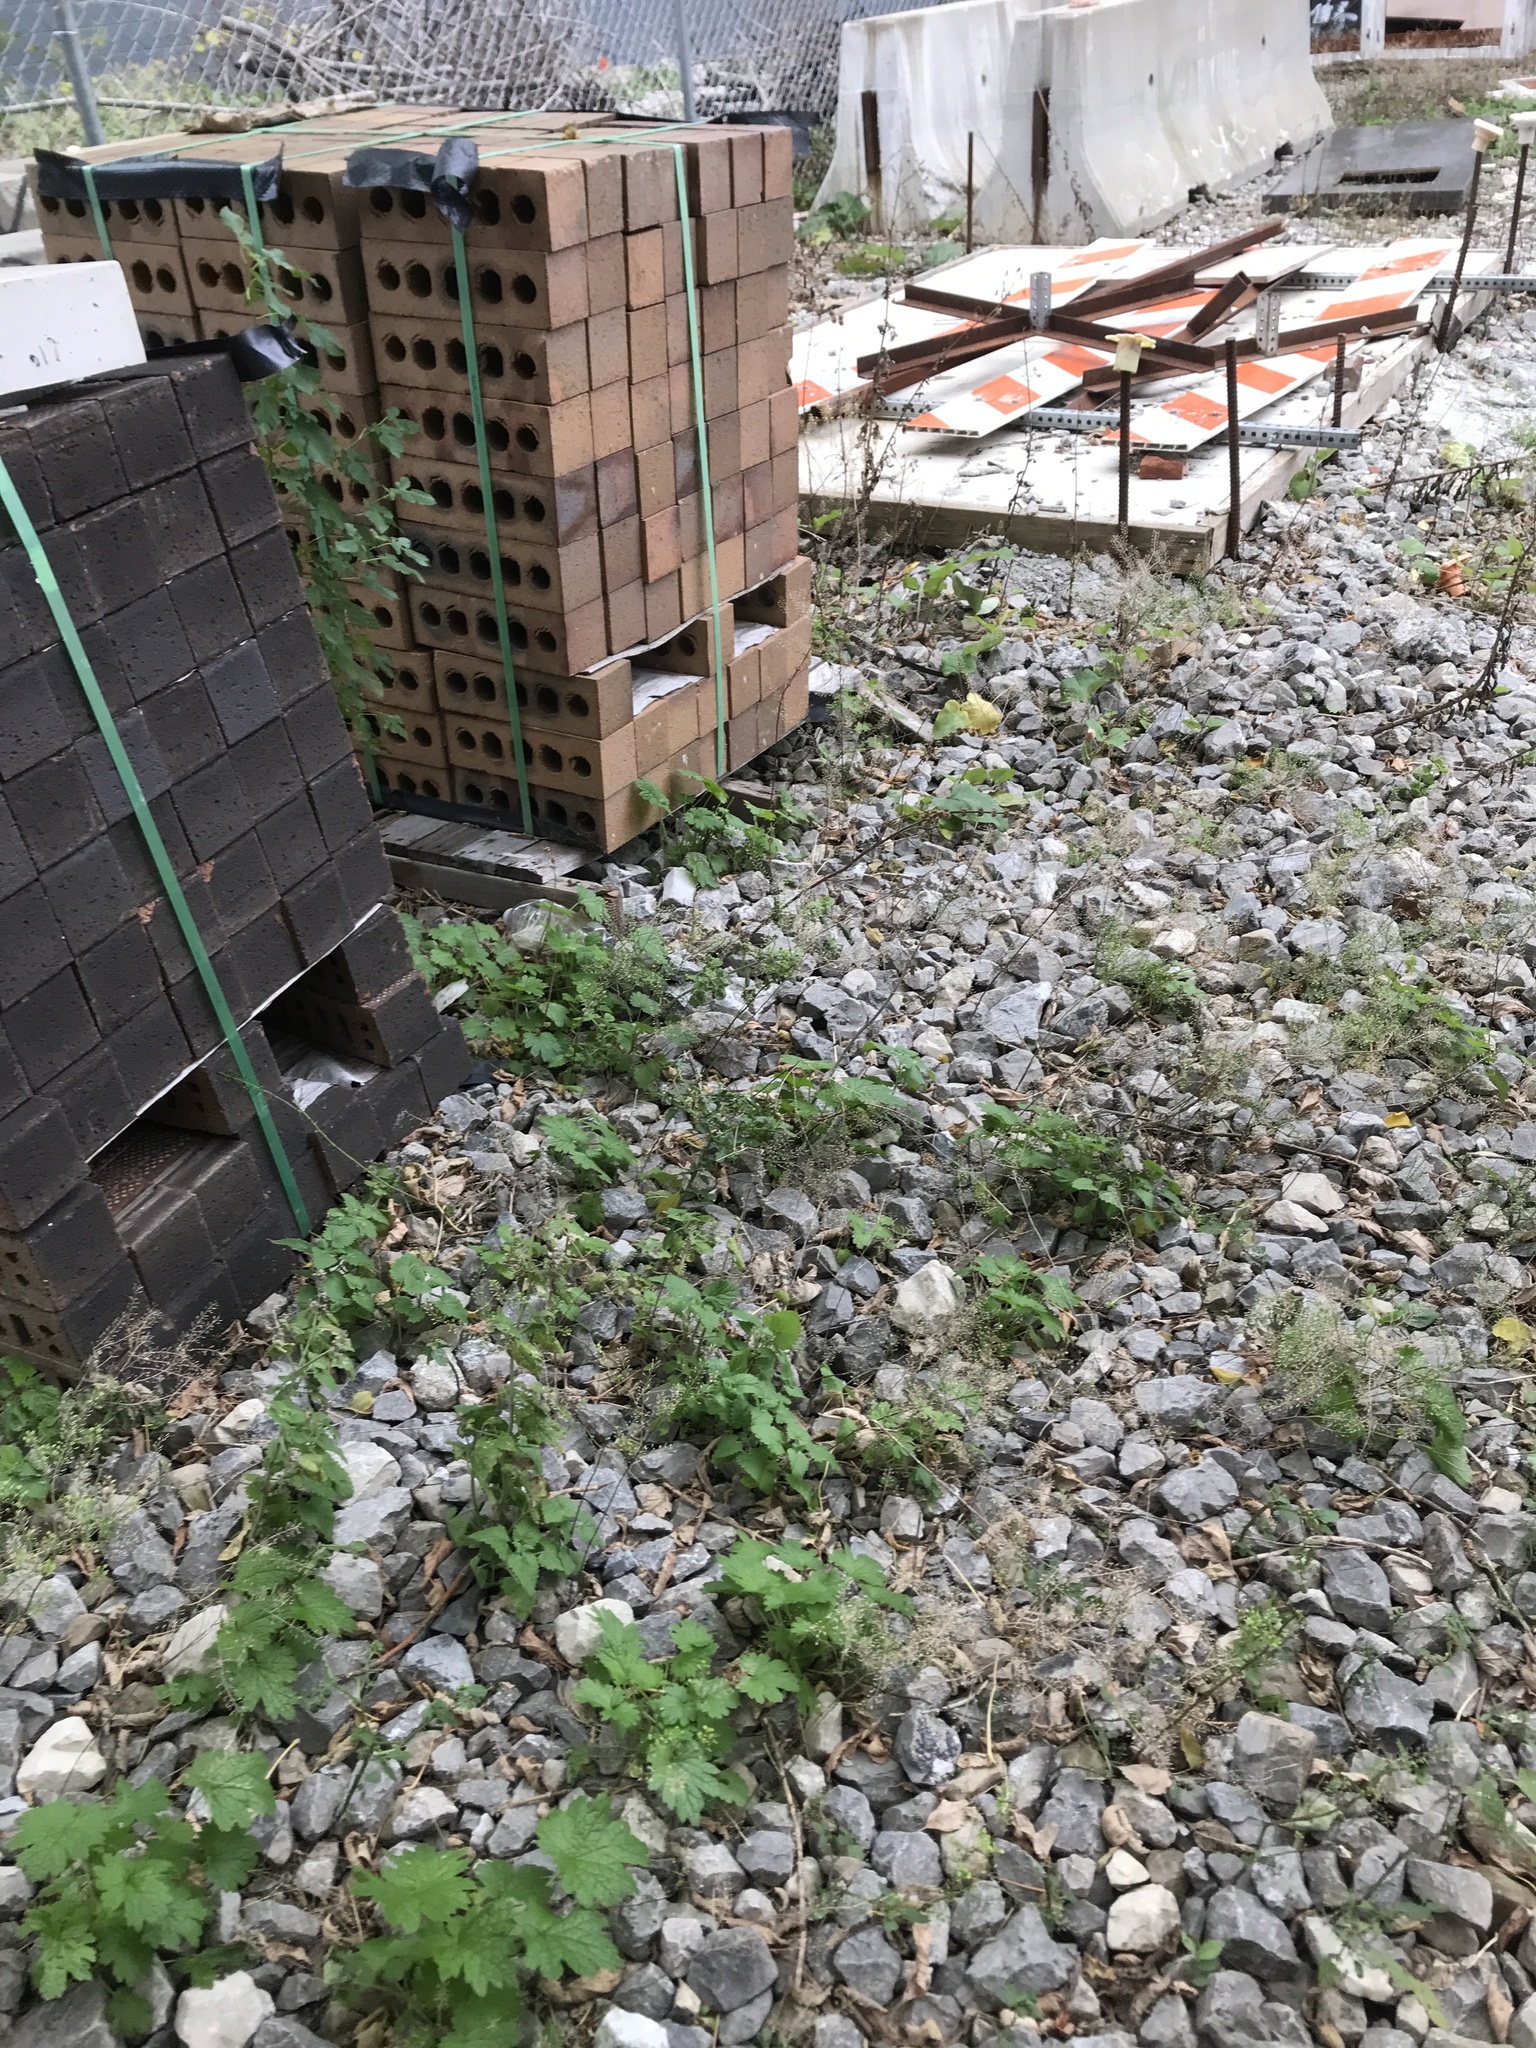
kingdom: Plantae
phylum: Tracheophyta
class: Magnoliopsida
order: Lamiales
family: Lamiaceae
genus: Leonurus
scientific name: Leonurus cardiaca
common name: Motherwort
